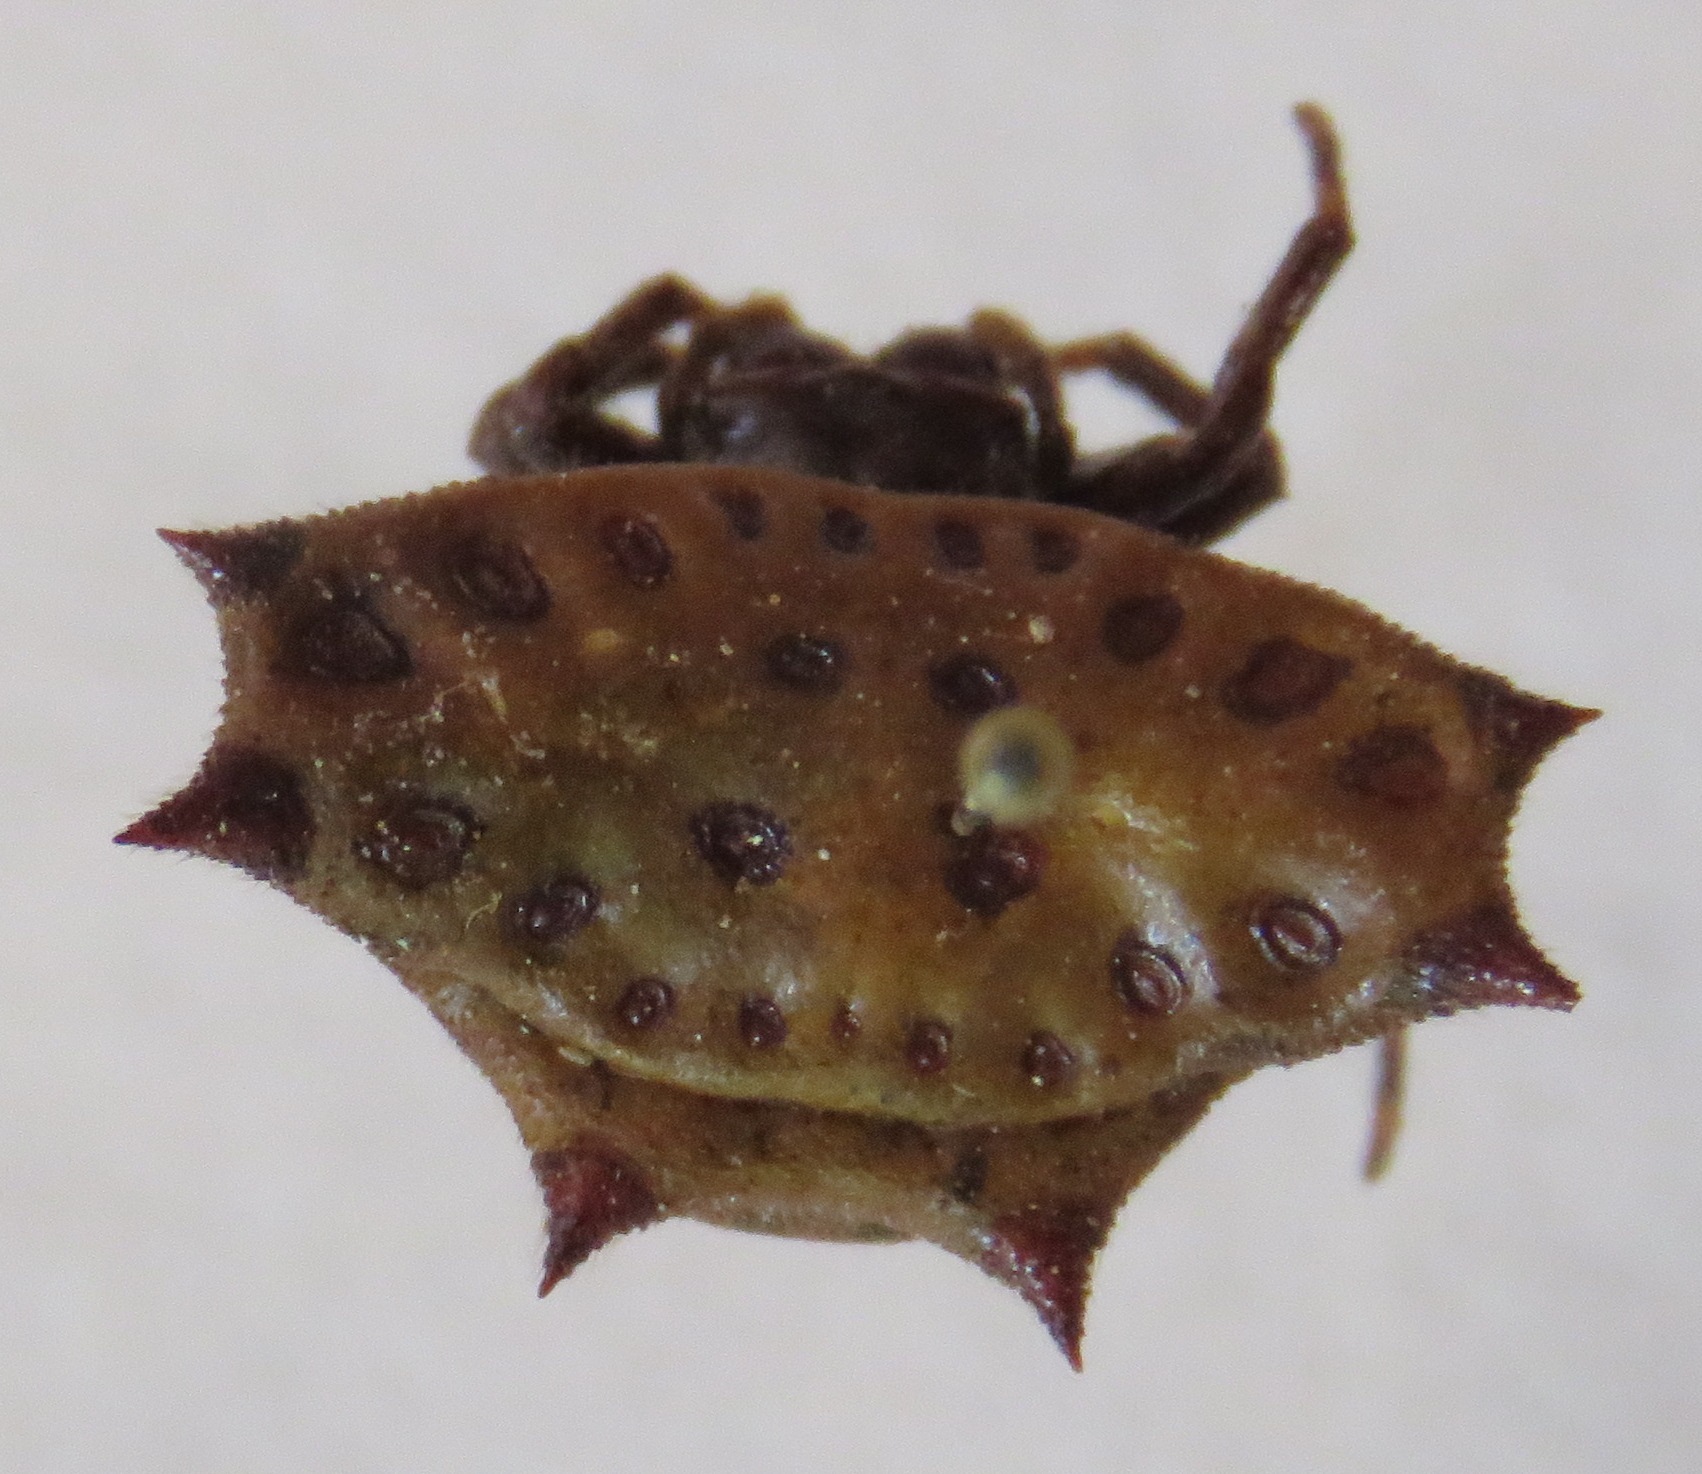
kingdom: Animalia
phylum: Arthropoda
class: Arachnida
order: Araneae
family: Araneidae
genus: Gasteracantha
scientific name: Gasteracantha cancriformis
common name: Orb weavers
